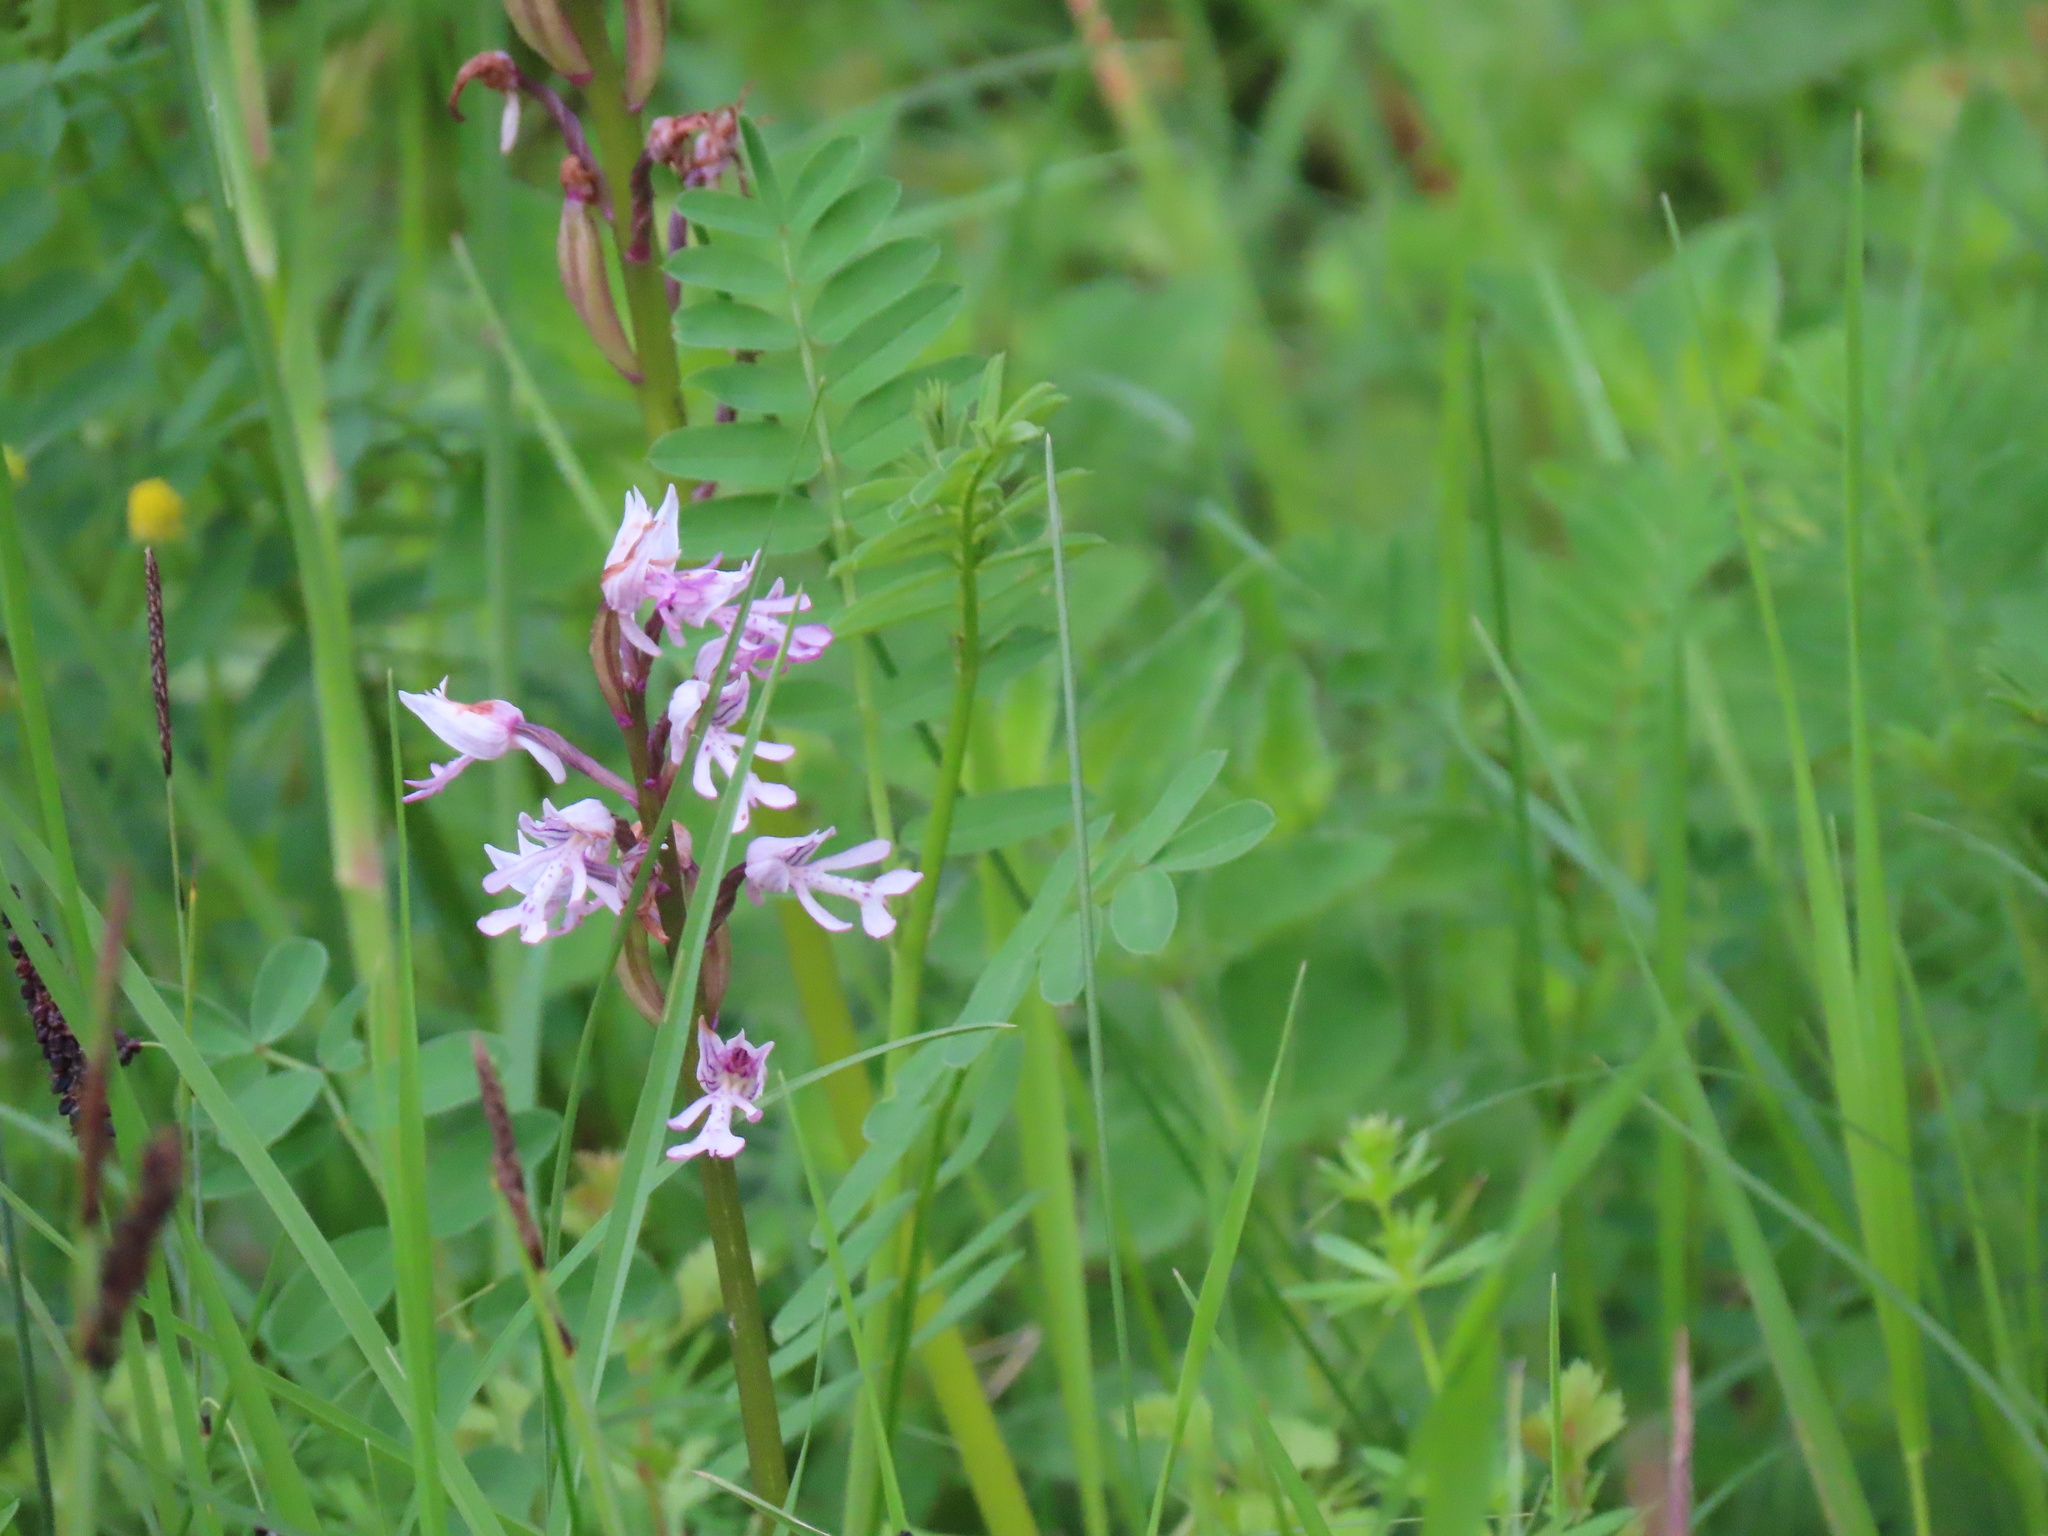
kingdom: Plantae
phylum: Tracheophyta
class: Liliopsida
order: Asparagales
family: Orchidaceae
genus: Orchis
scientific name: Orchis militaris
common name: Military orchid
